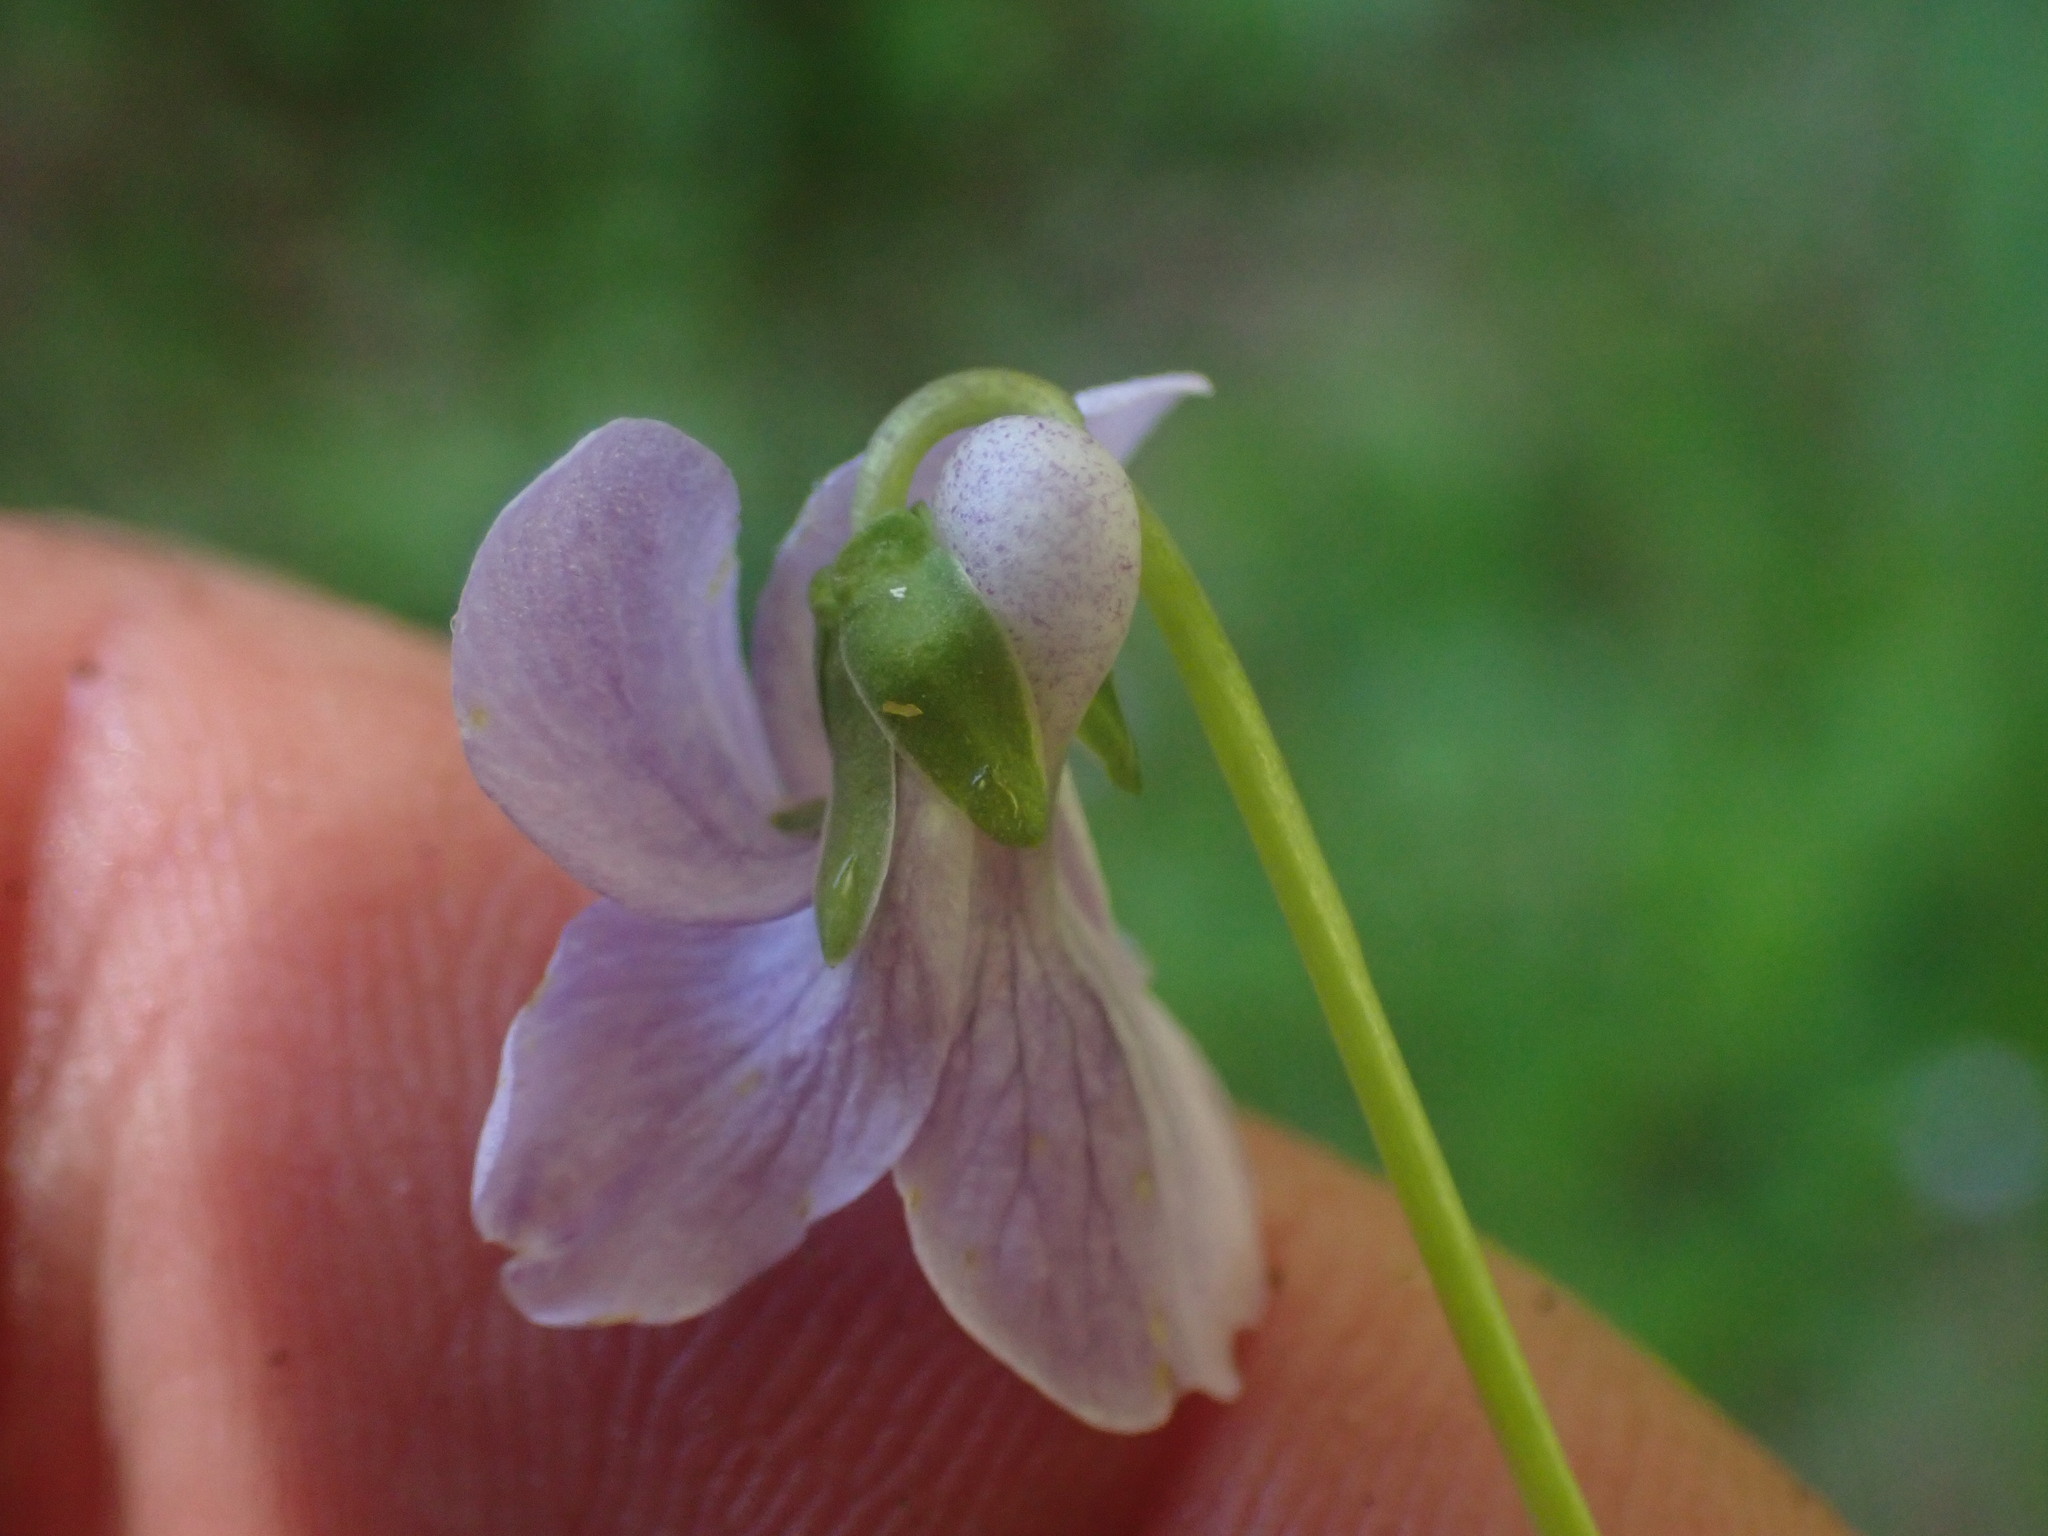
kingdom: Plantae
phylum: Tracheophyta
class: Magnoliopsida
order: Malpighiales
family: Violaceae
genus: Viola
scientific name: Viola palustris
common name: Marsh violet
